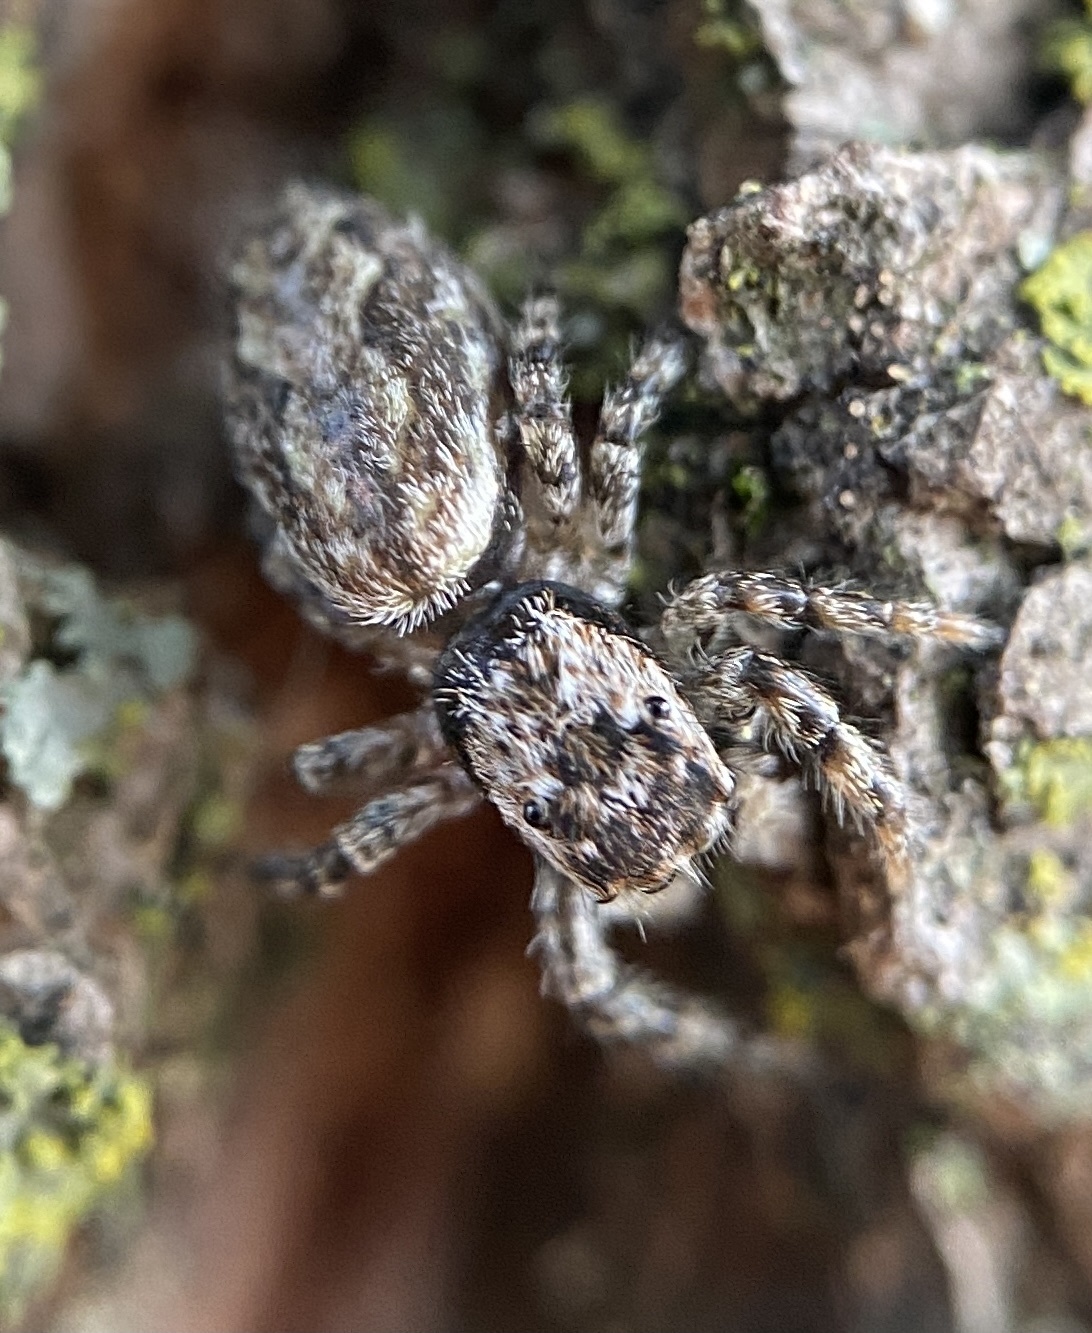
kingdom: Animalia
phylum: Arthropoda
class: Arachnida
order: Araneae
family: Salticidae
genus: Platycryptus
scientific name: Platycryptus undatus
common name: Tan jumping spider
